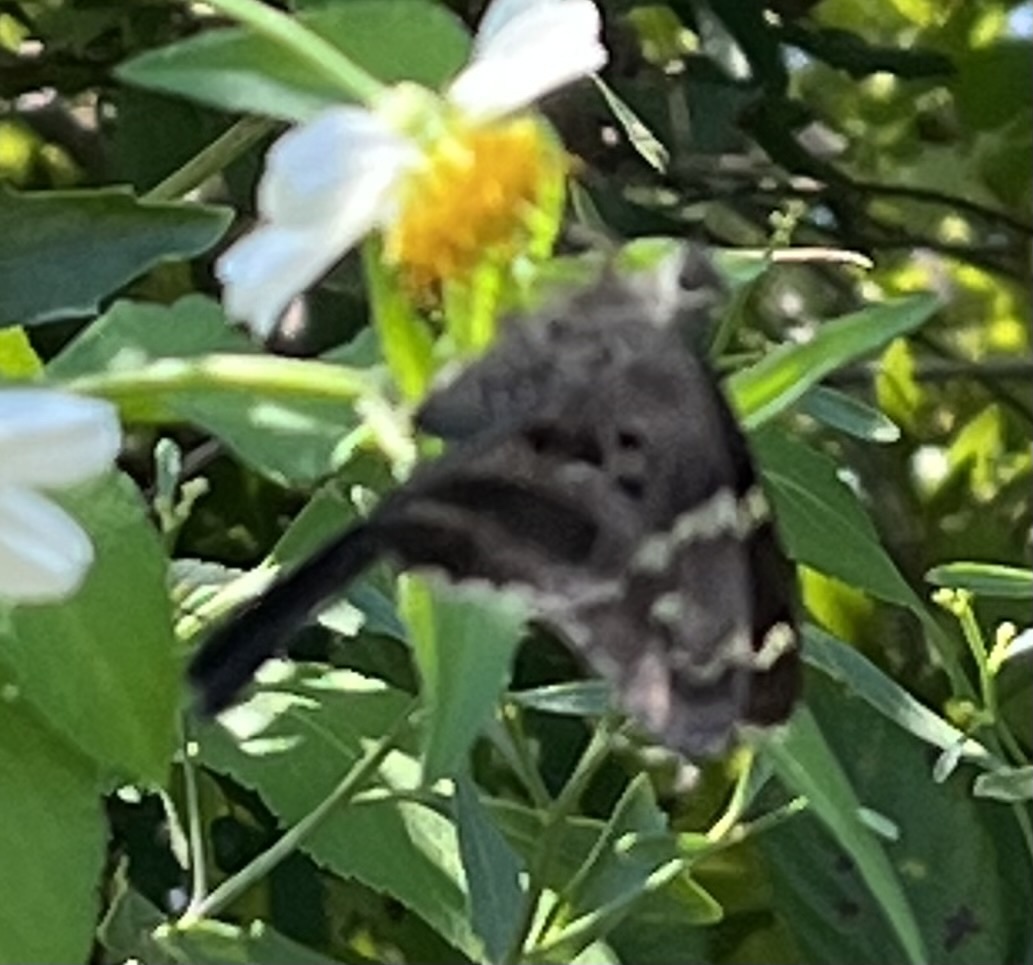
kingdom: Animalia
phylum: Arthropoda
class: Insecta
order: Lepidoptera
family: Hesperiidae
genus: Urbanus
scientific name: Urbanus proteus
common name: Long-tailed skipper
